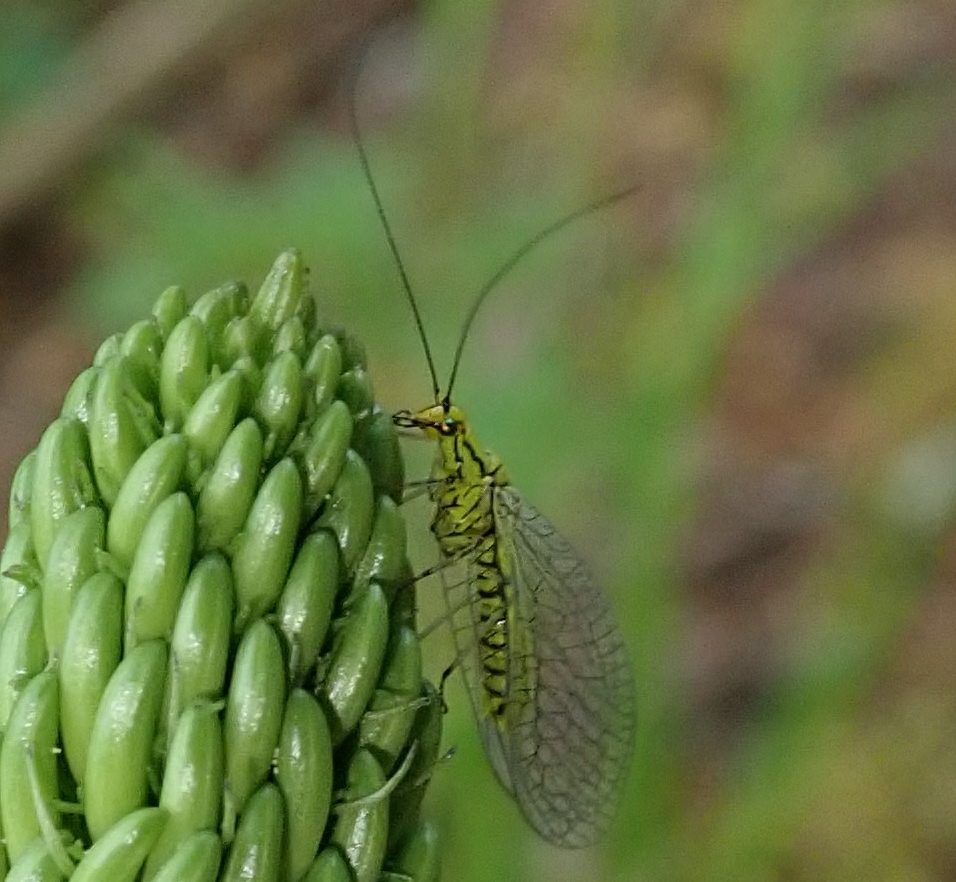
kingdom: Animalia
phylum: Arthropoda
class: Insecta
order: Neuroptera
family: Chrysopidae
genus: Hypochrysa
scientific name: Hypochrysa elegans
